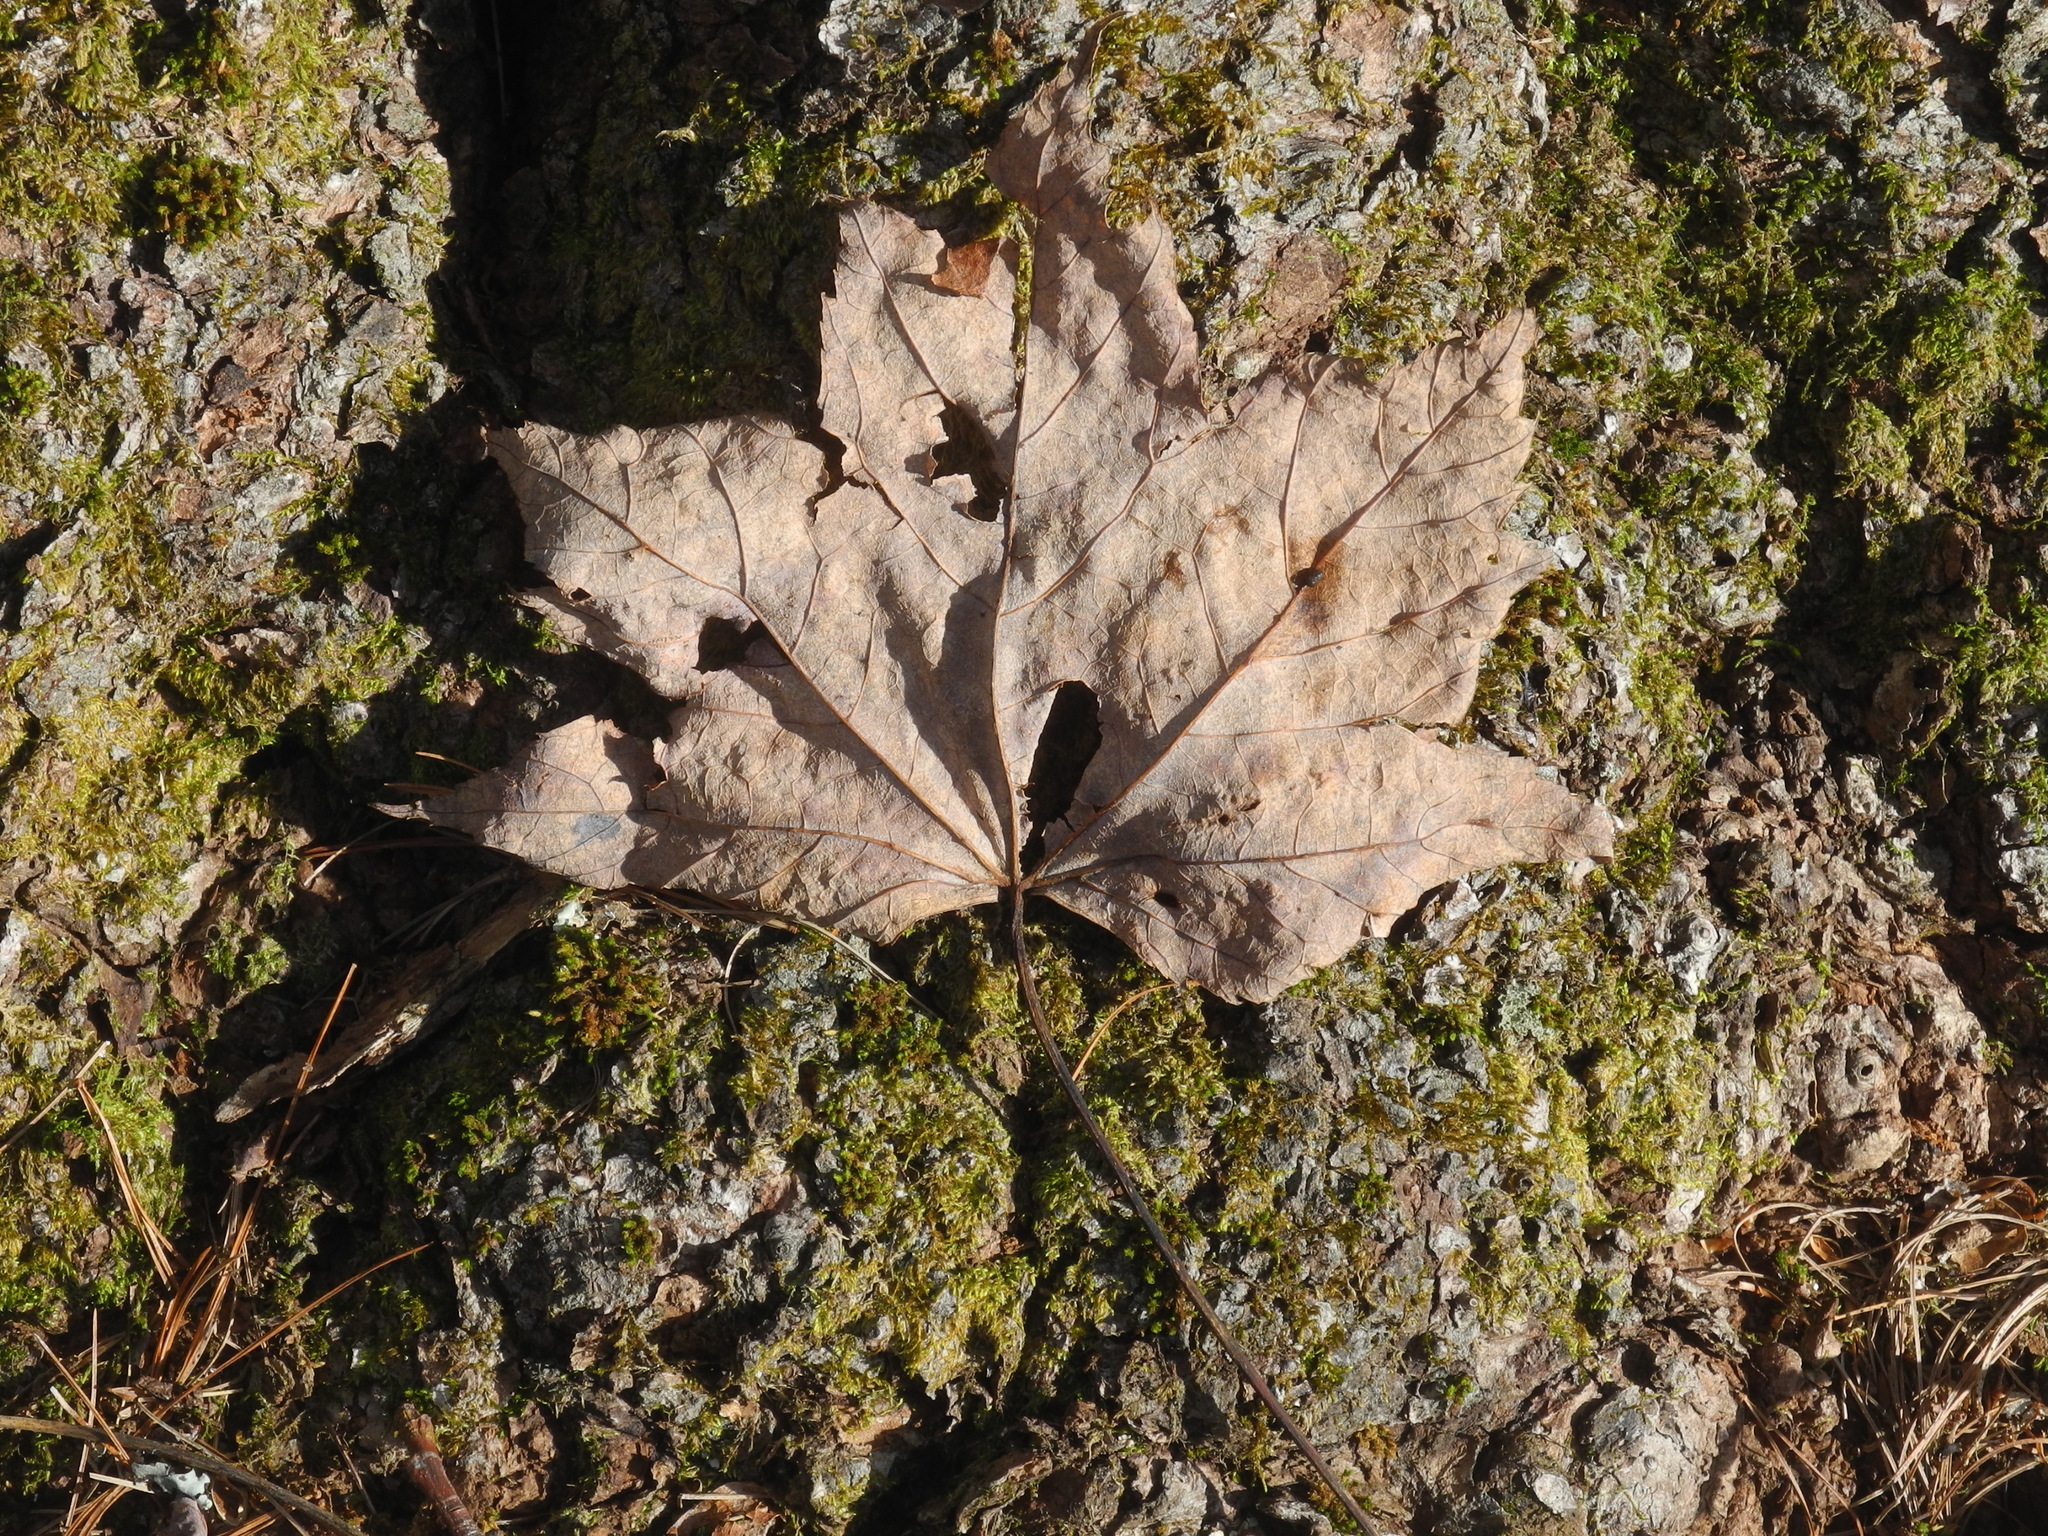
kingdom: Plantae
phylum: Tracheophyta
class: Magnoliopsida
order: Sapindales
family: Sapindaceae
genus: Acer
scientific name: Acer freemanii
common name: Freeman maple
